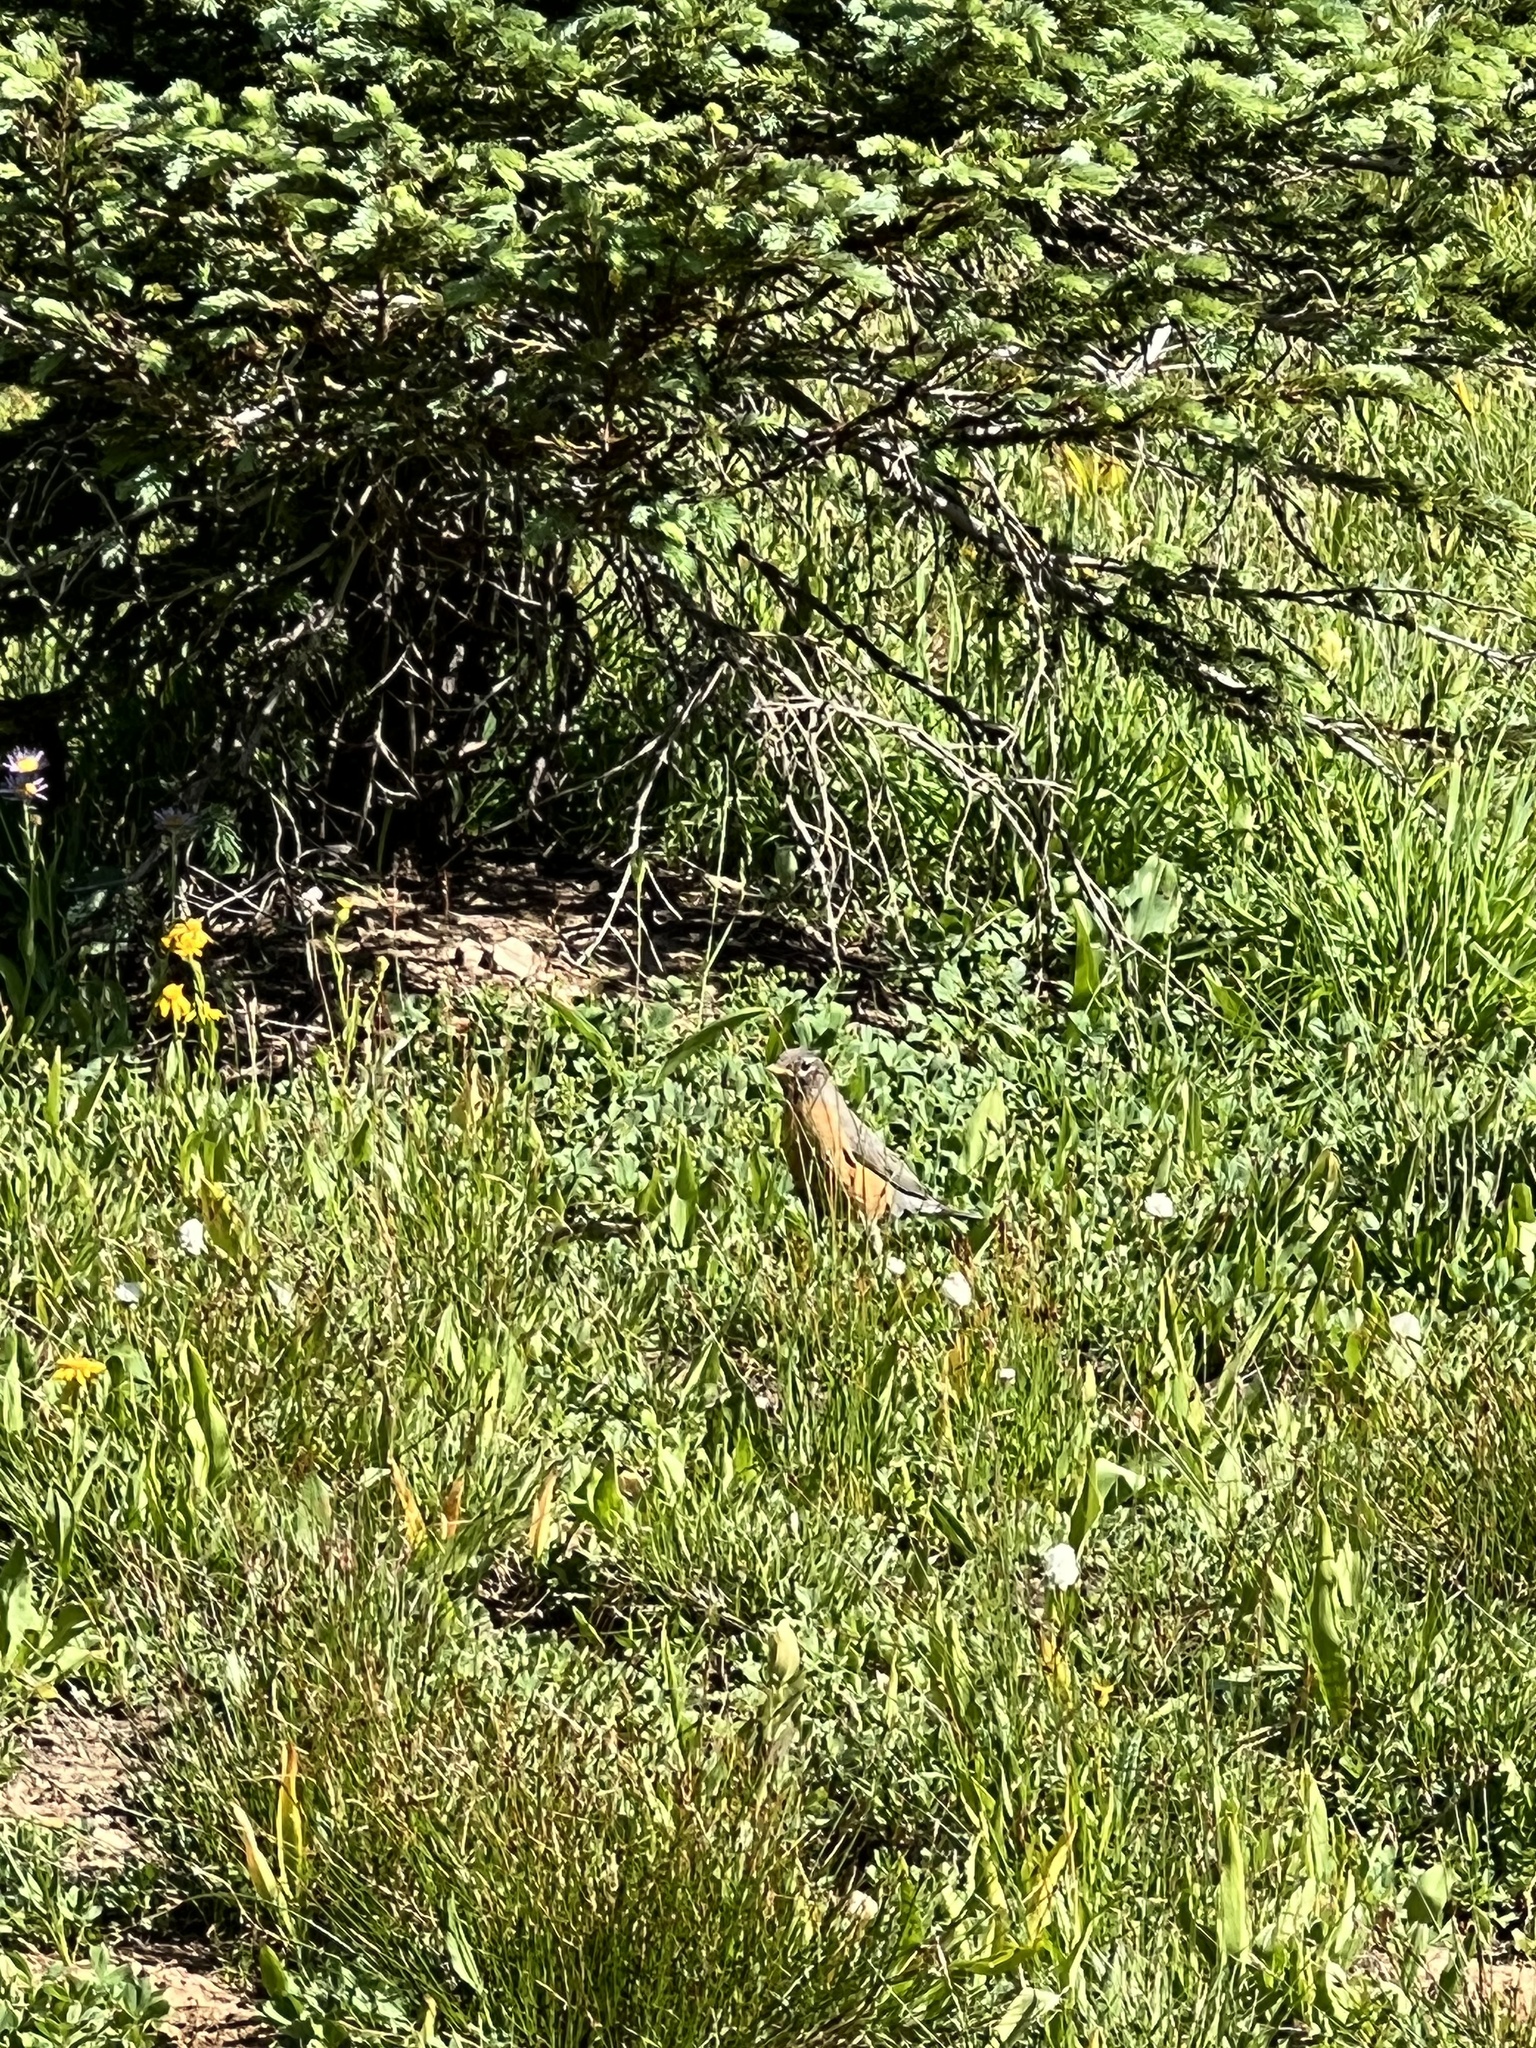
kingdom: Animalia
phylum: Chordata
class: Aves
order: Passeriformes
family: Turdidae
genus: Turdus
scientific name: Turdus migratorius
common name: American robin
